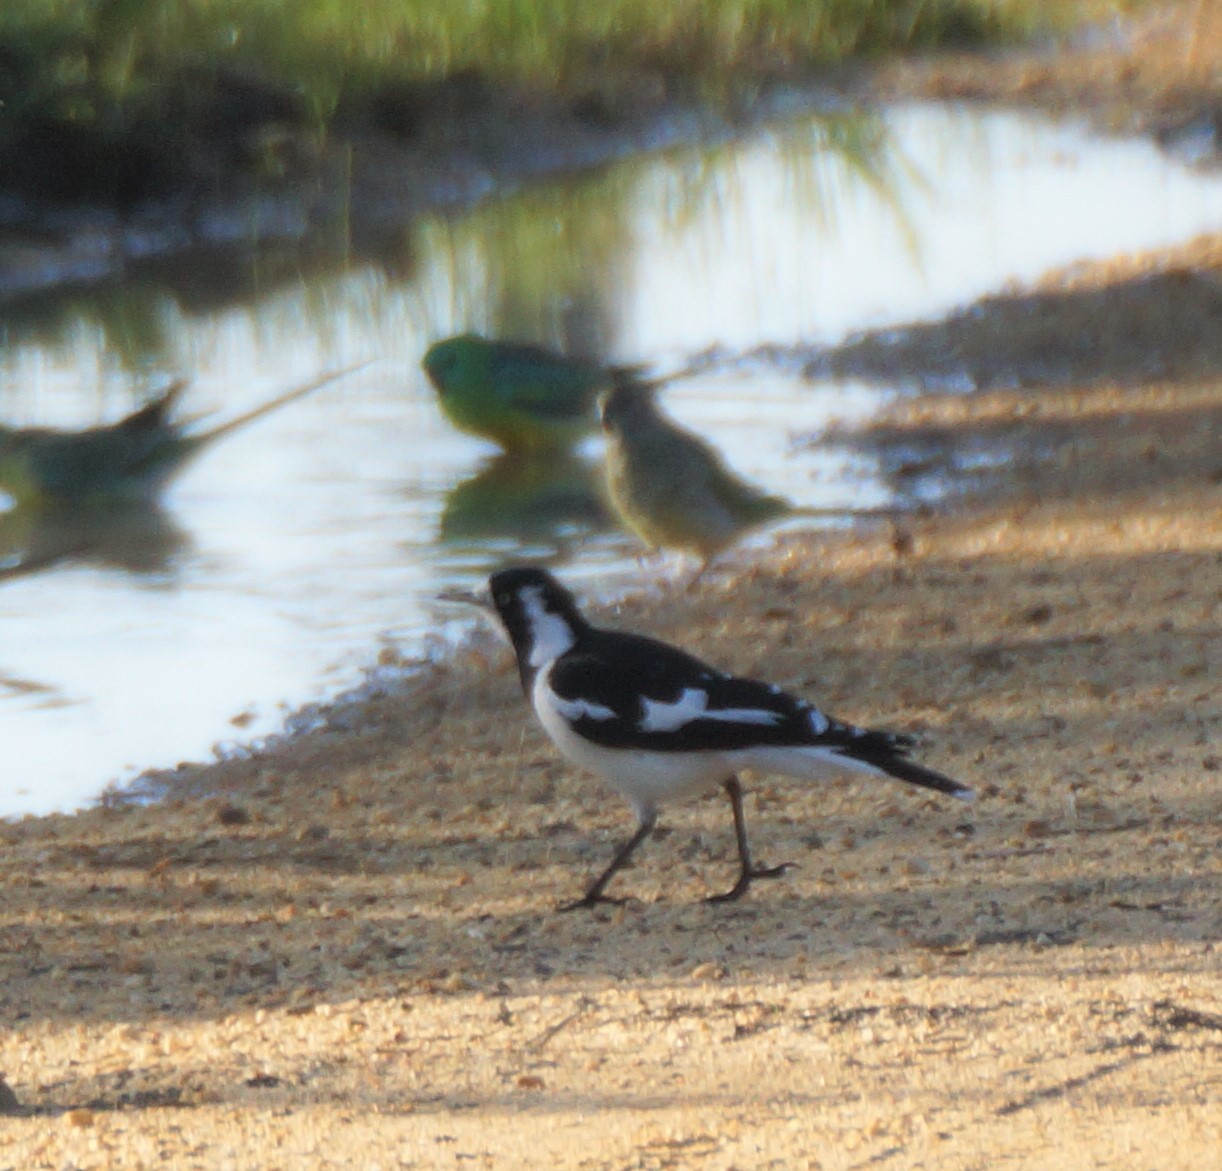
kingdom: Animalia
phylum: Chordata
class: Aves
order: Passeriformes
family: Monarchidae
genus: Grallina
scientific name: Grallina cyanoleuca
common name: Magpie-lark
